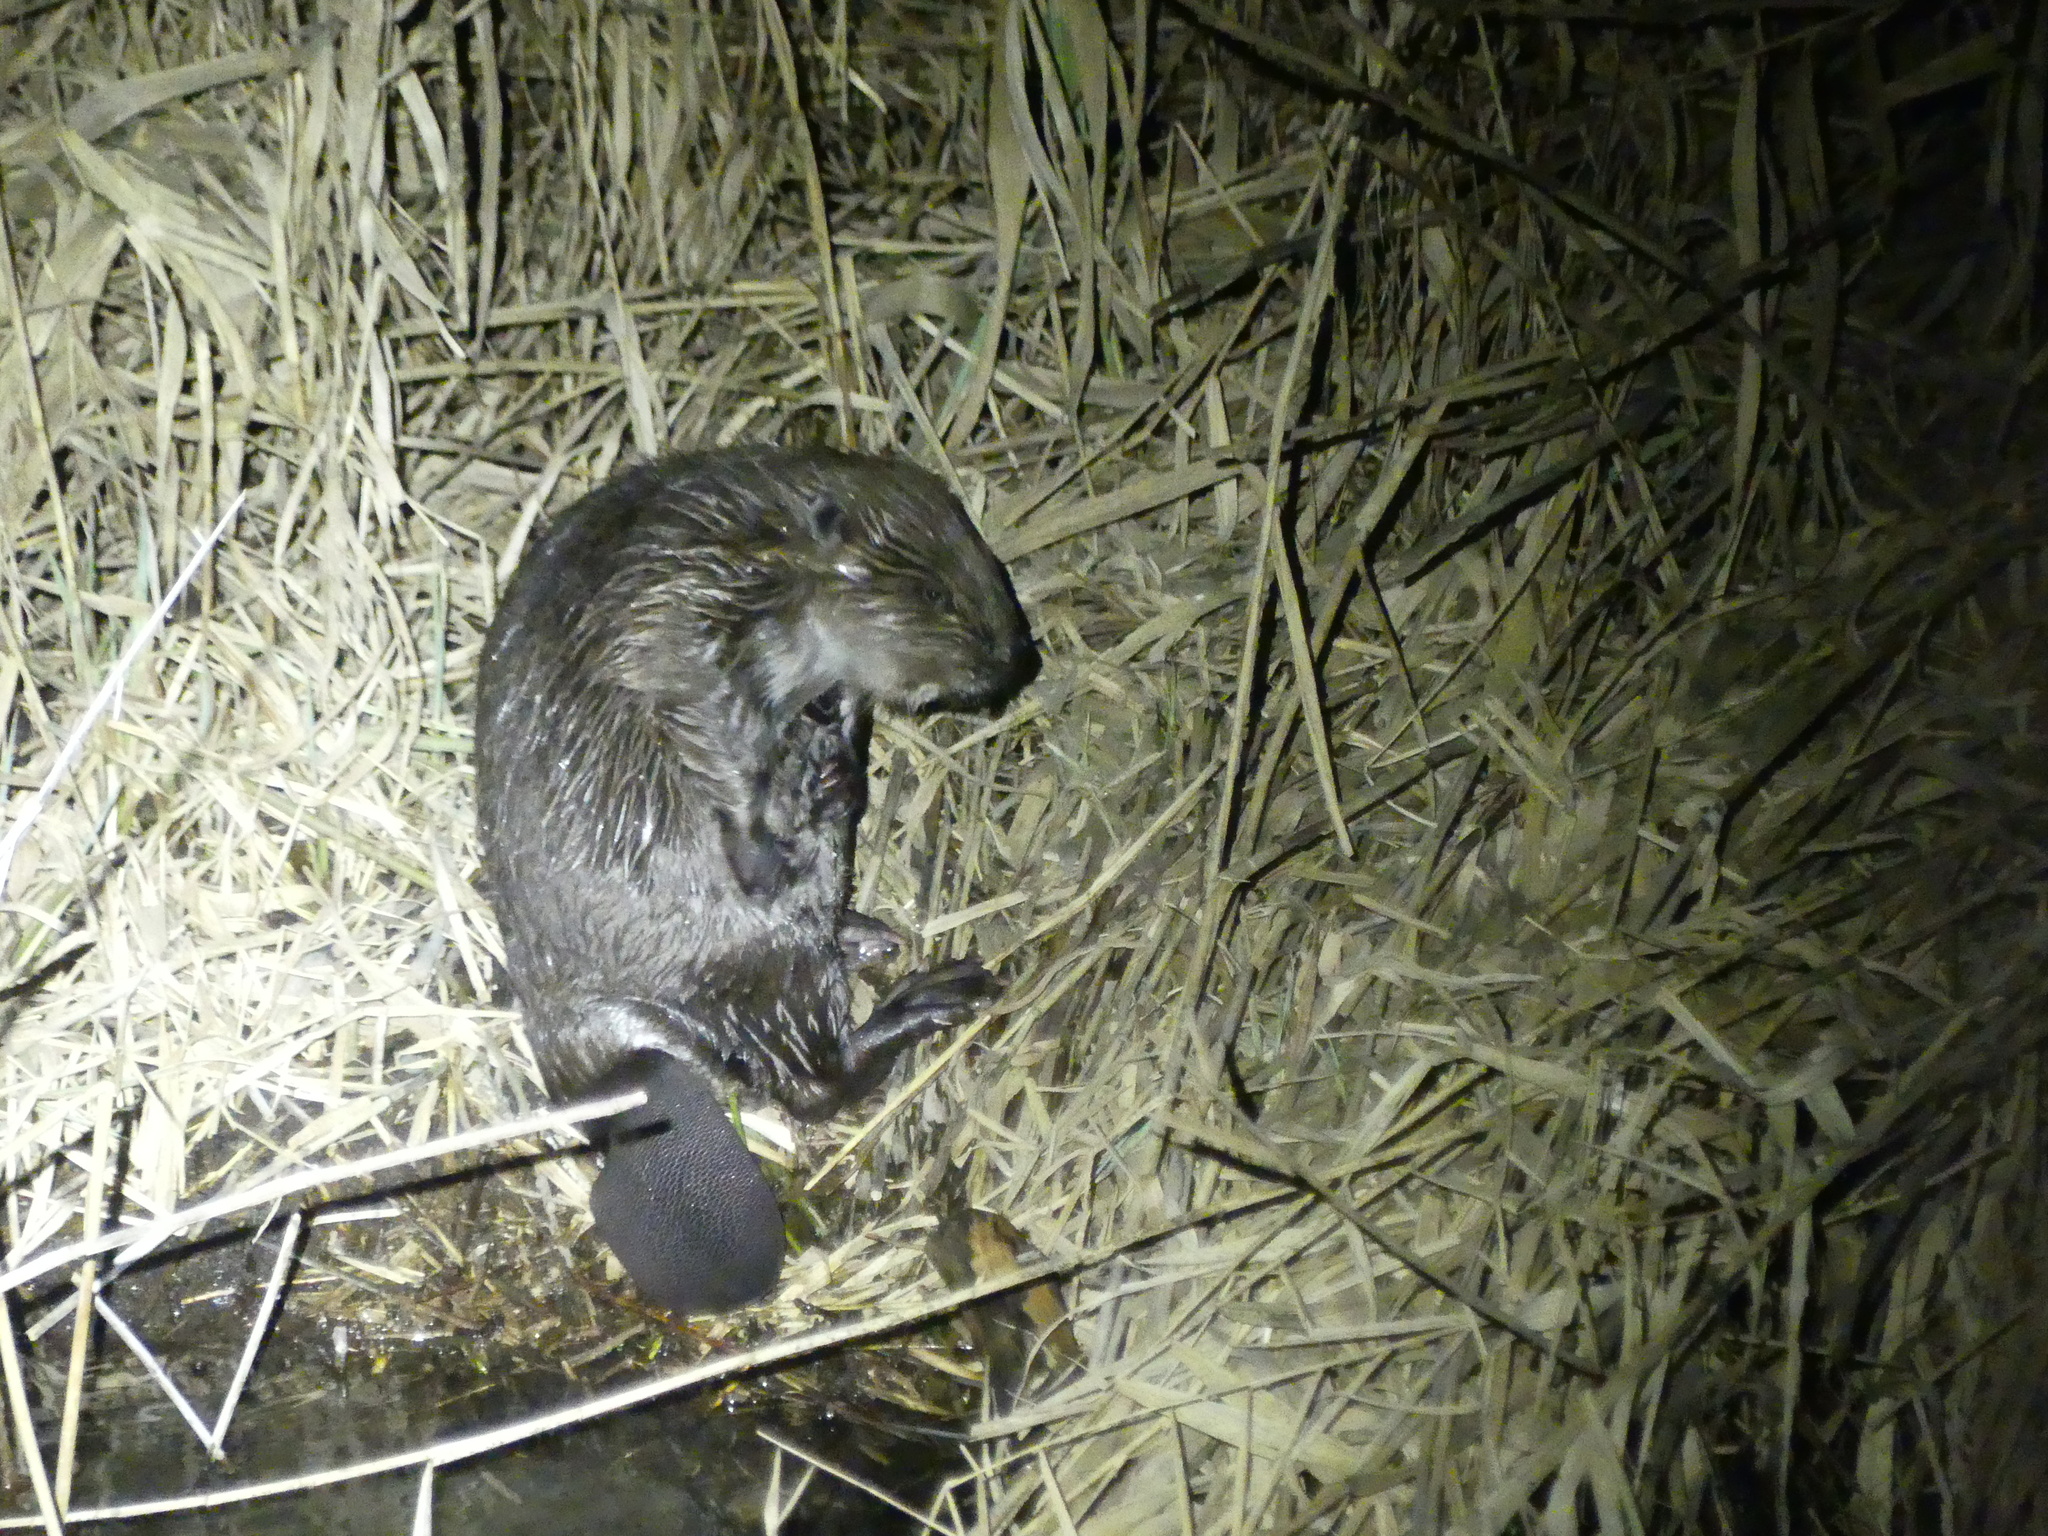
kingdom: Animalia
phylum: Chordata
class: Mammalia
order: Rodentia
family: Castoridae
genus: Castor
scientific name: Castor fiber
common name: Eurasian beaver
